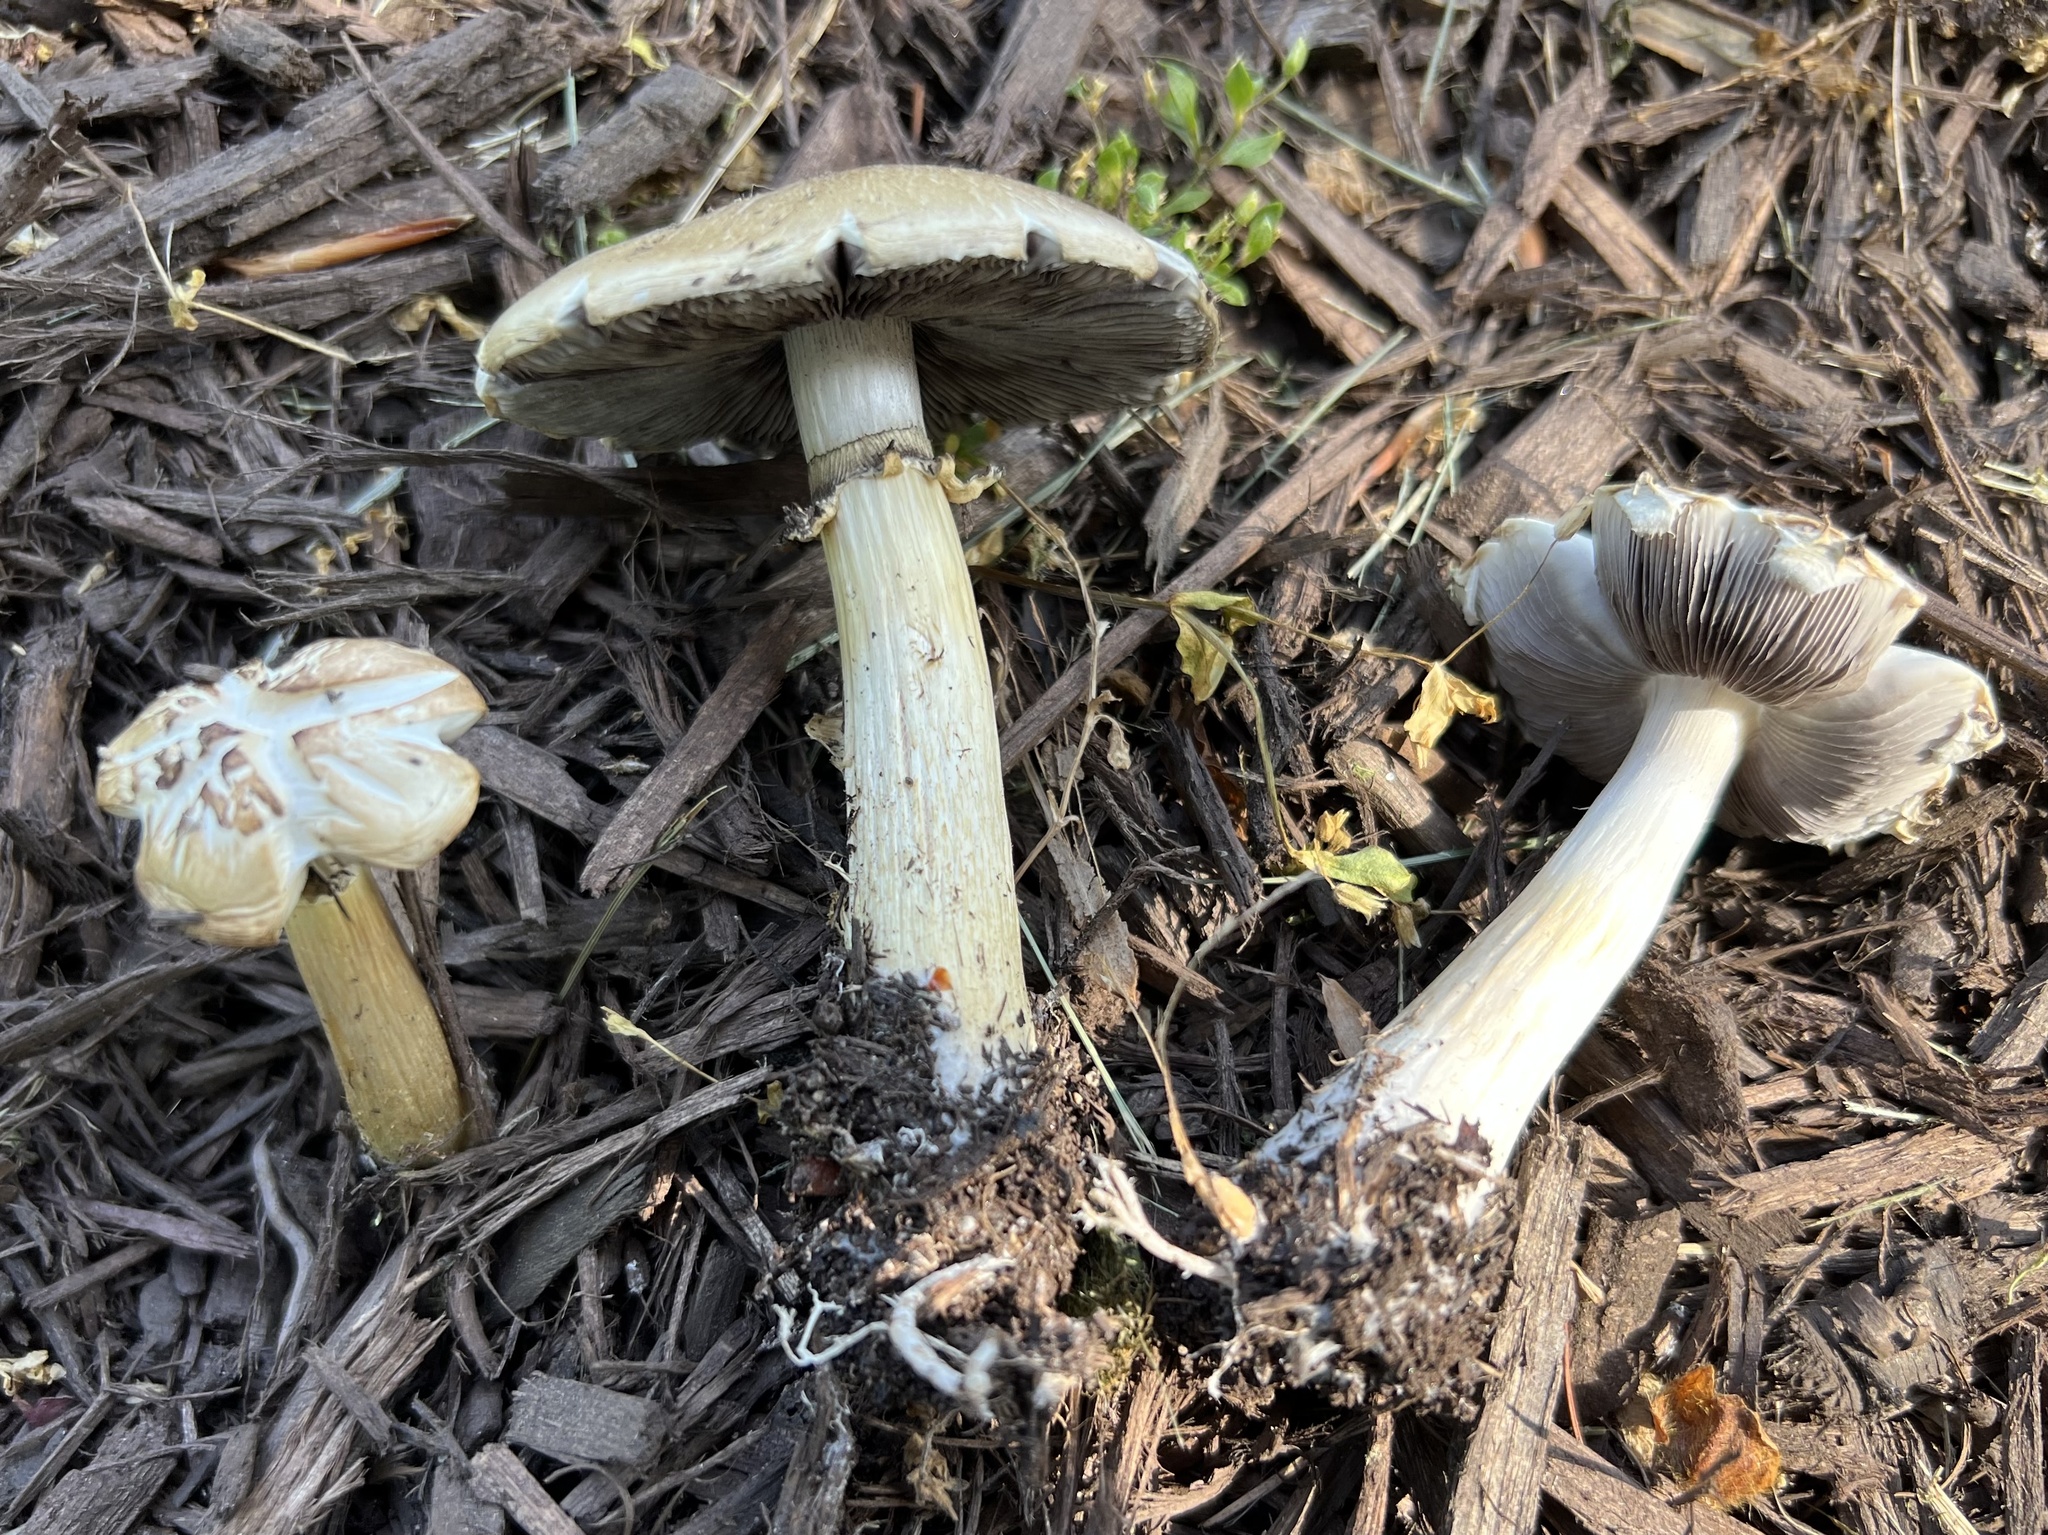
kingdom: Fungi
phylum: Basidiomycota
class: Agaricomycetes
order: Agaricales
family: Strophariaceae
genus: Stropharia
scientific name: Stropharia rugosoannulata
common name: Wine roundhead
